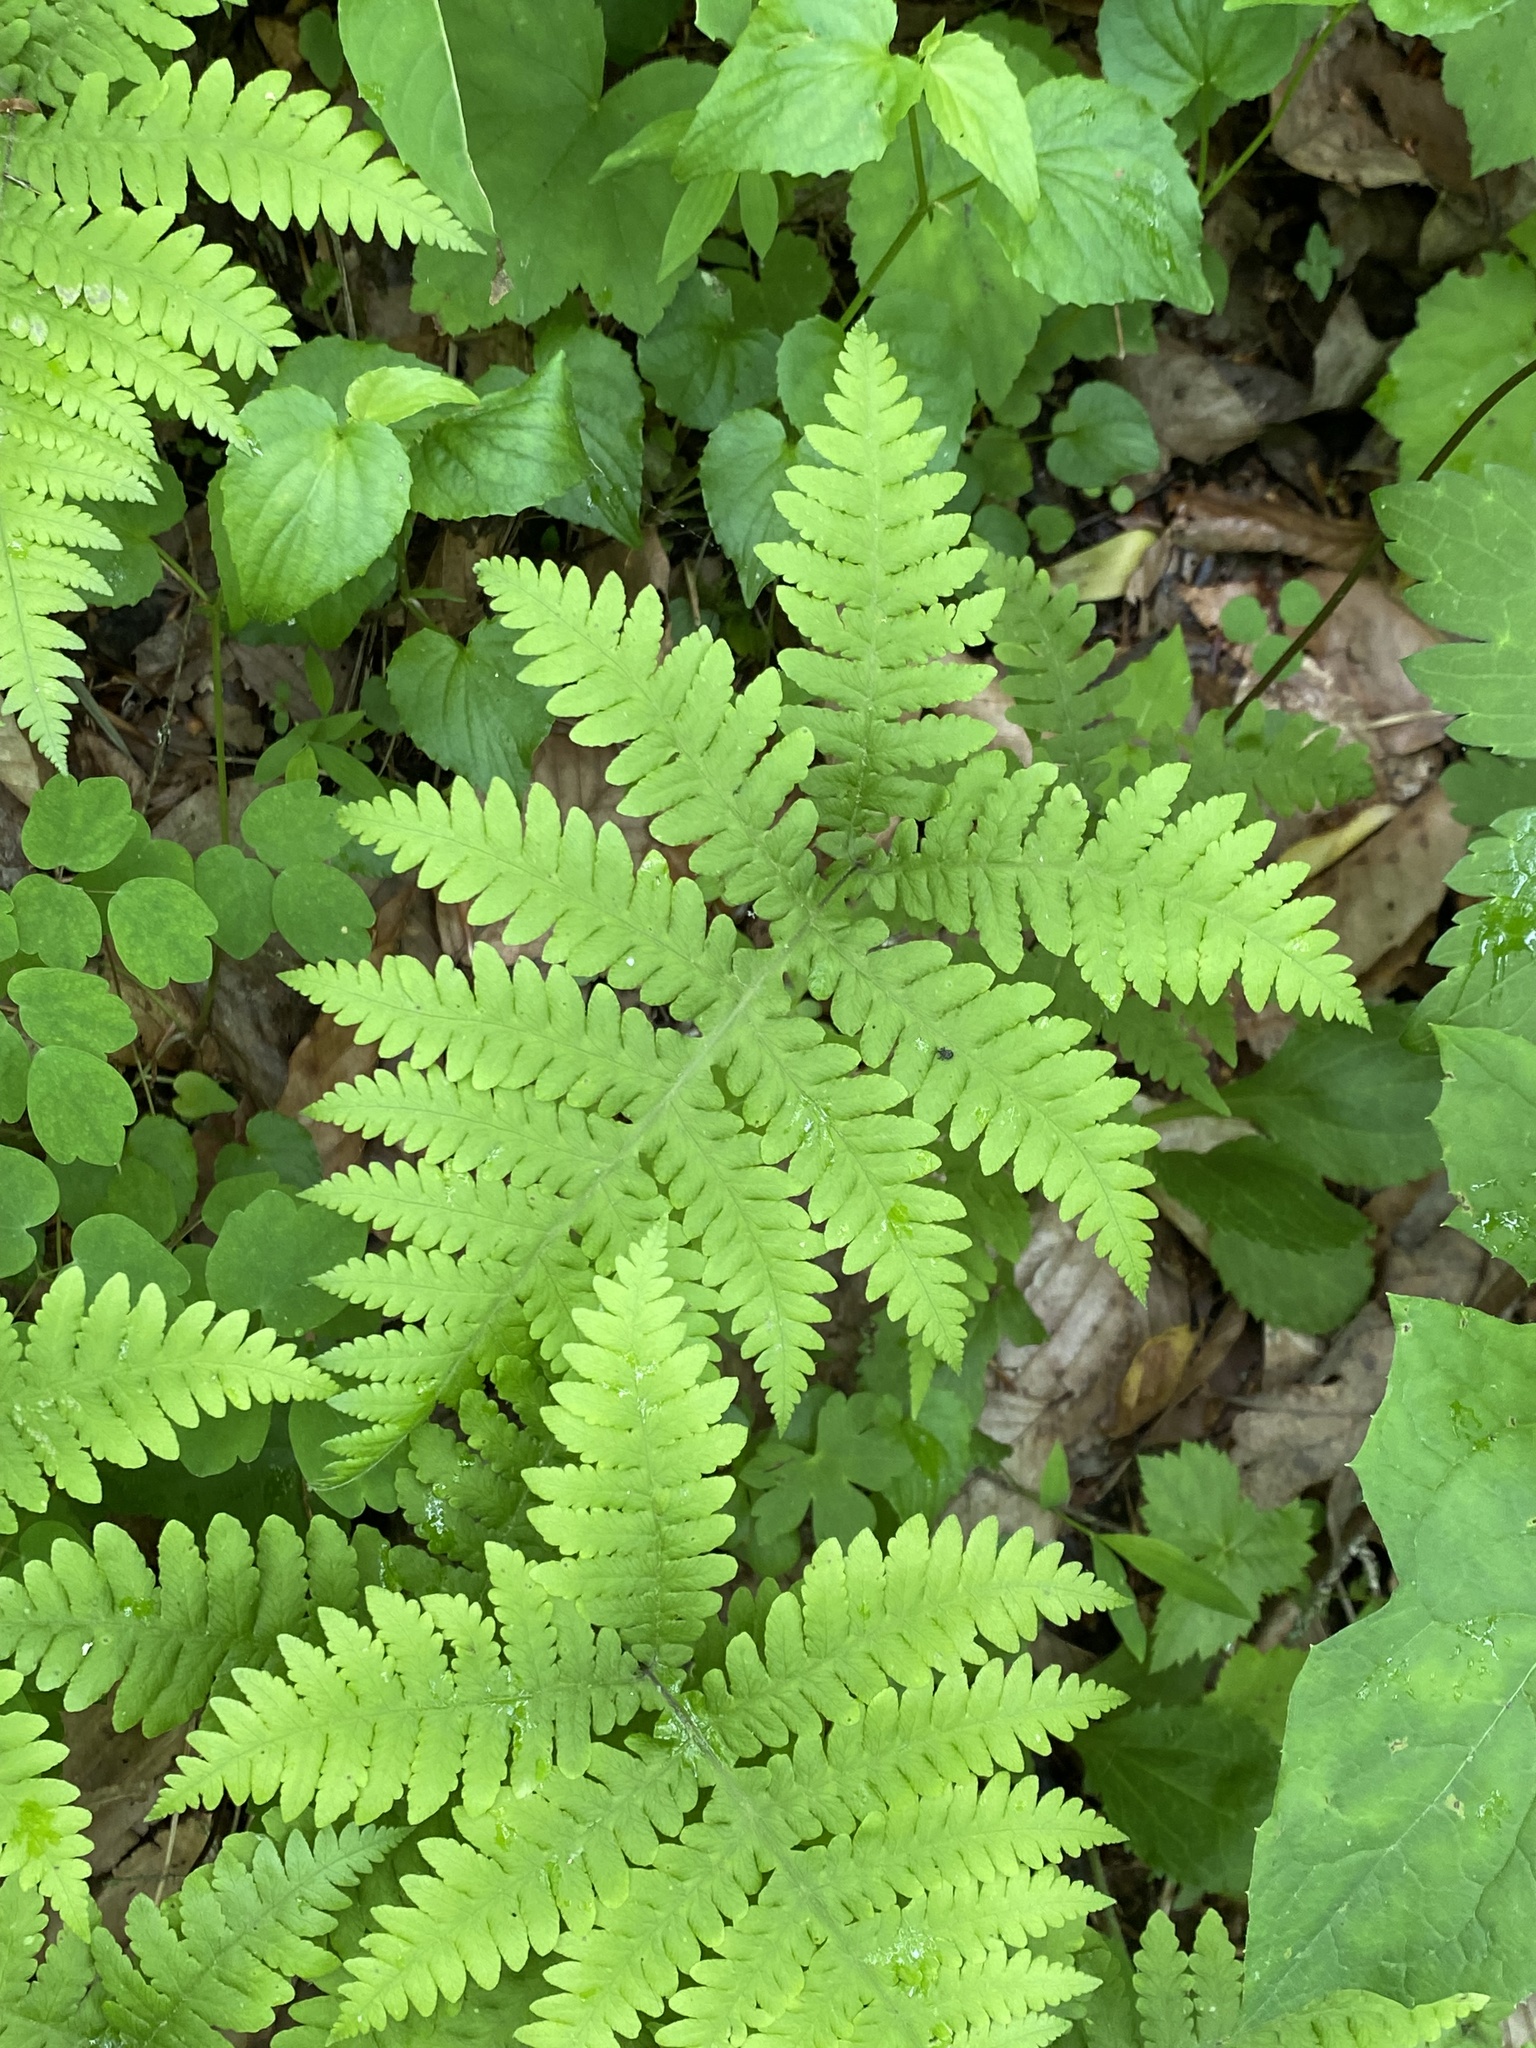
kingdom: Plantae
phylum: Tracheophyta
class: Polypodiopsida
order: Polypodiales
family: Thelypteridaceae
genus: Phegopteris
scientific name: Phegopteris hexagonoptera
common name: Broad beech fern
